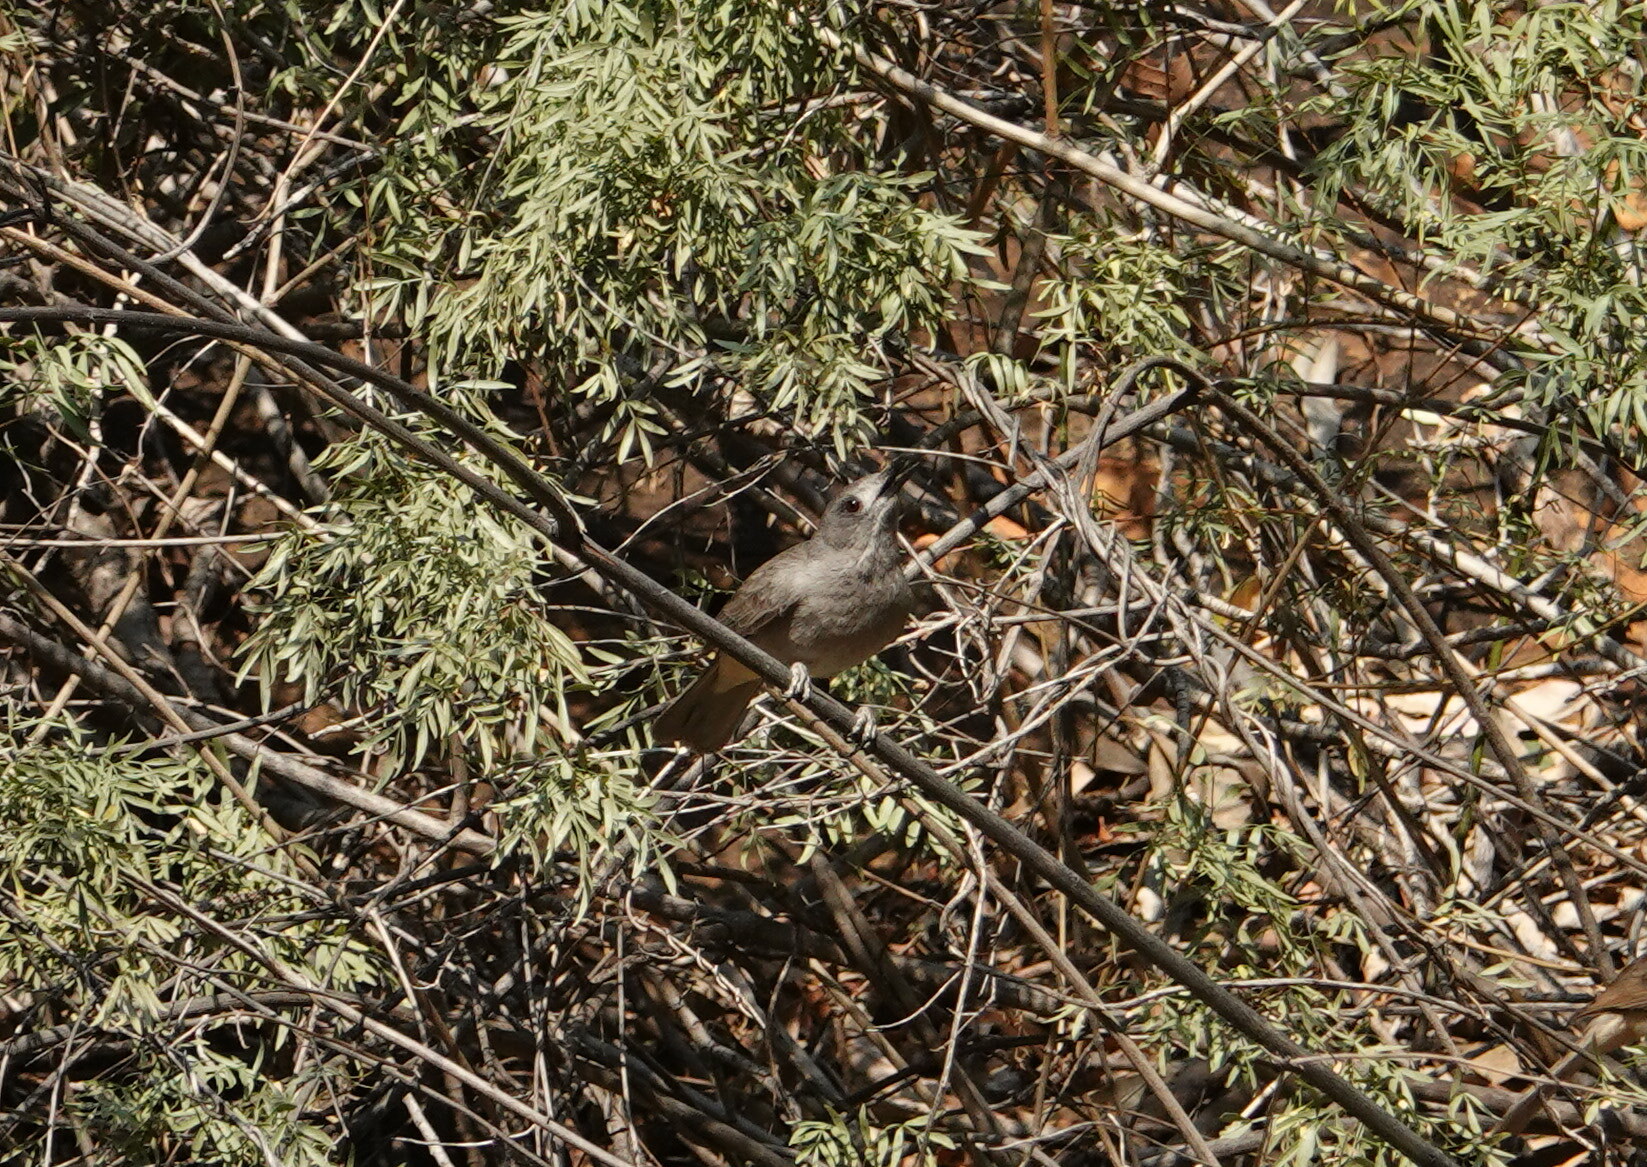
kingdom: Animalia
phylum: Chordata
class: Aves
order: Passeriformes
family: Pachycephalidae
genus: Colluricincla
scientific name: Colluricincla harmonica
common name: Grey shrikethrush
